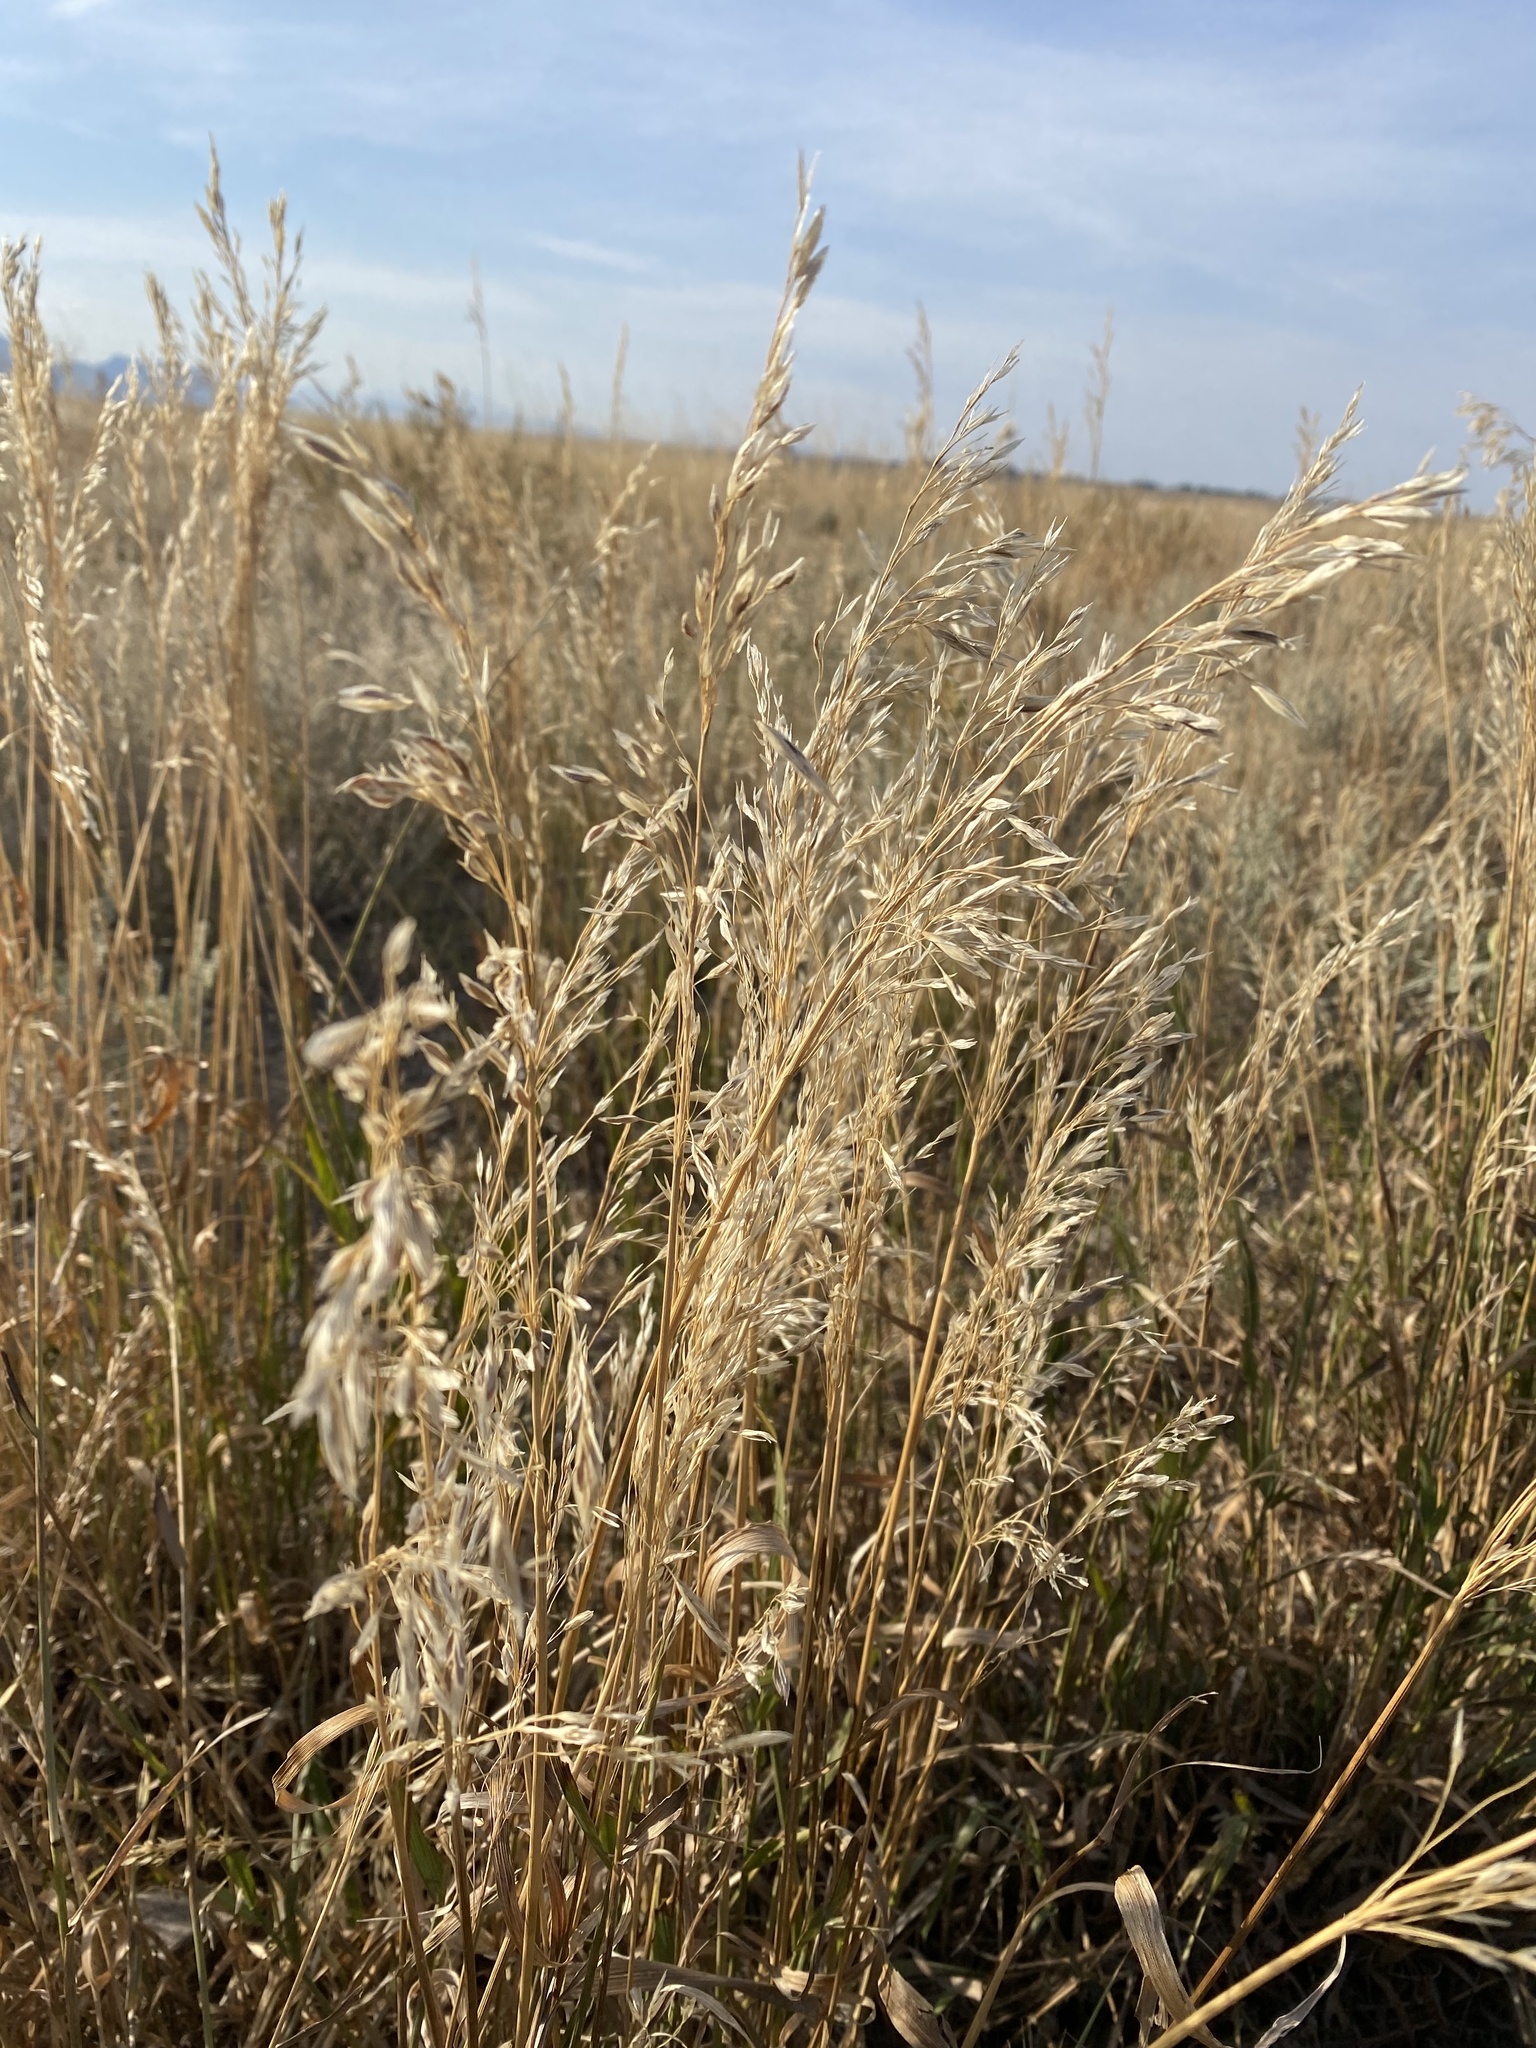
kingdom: Plantae
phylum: Tracheophyta
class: Liliopsida
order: Poales
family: Poaceae
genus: Bromus
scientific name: Bromus inermis
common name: Smooth brome
